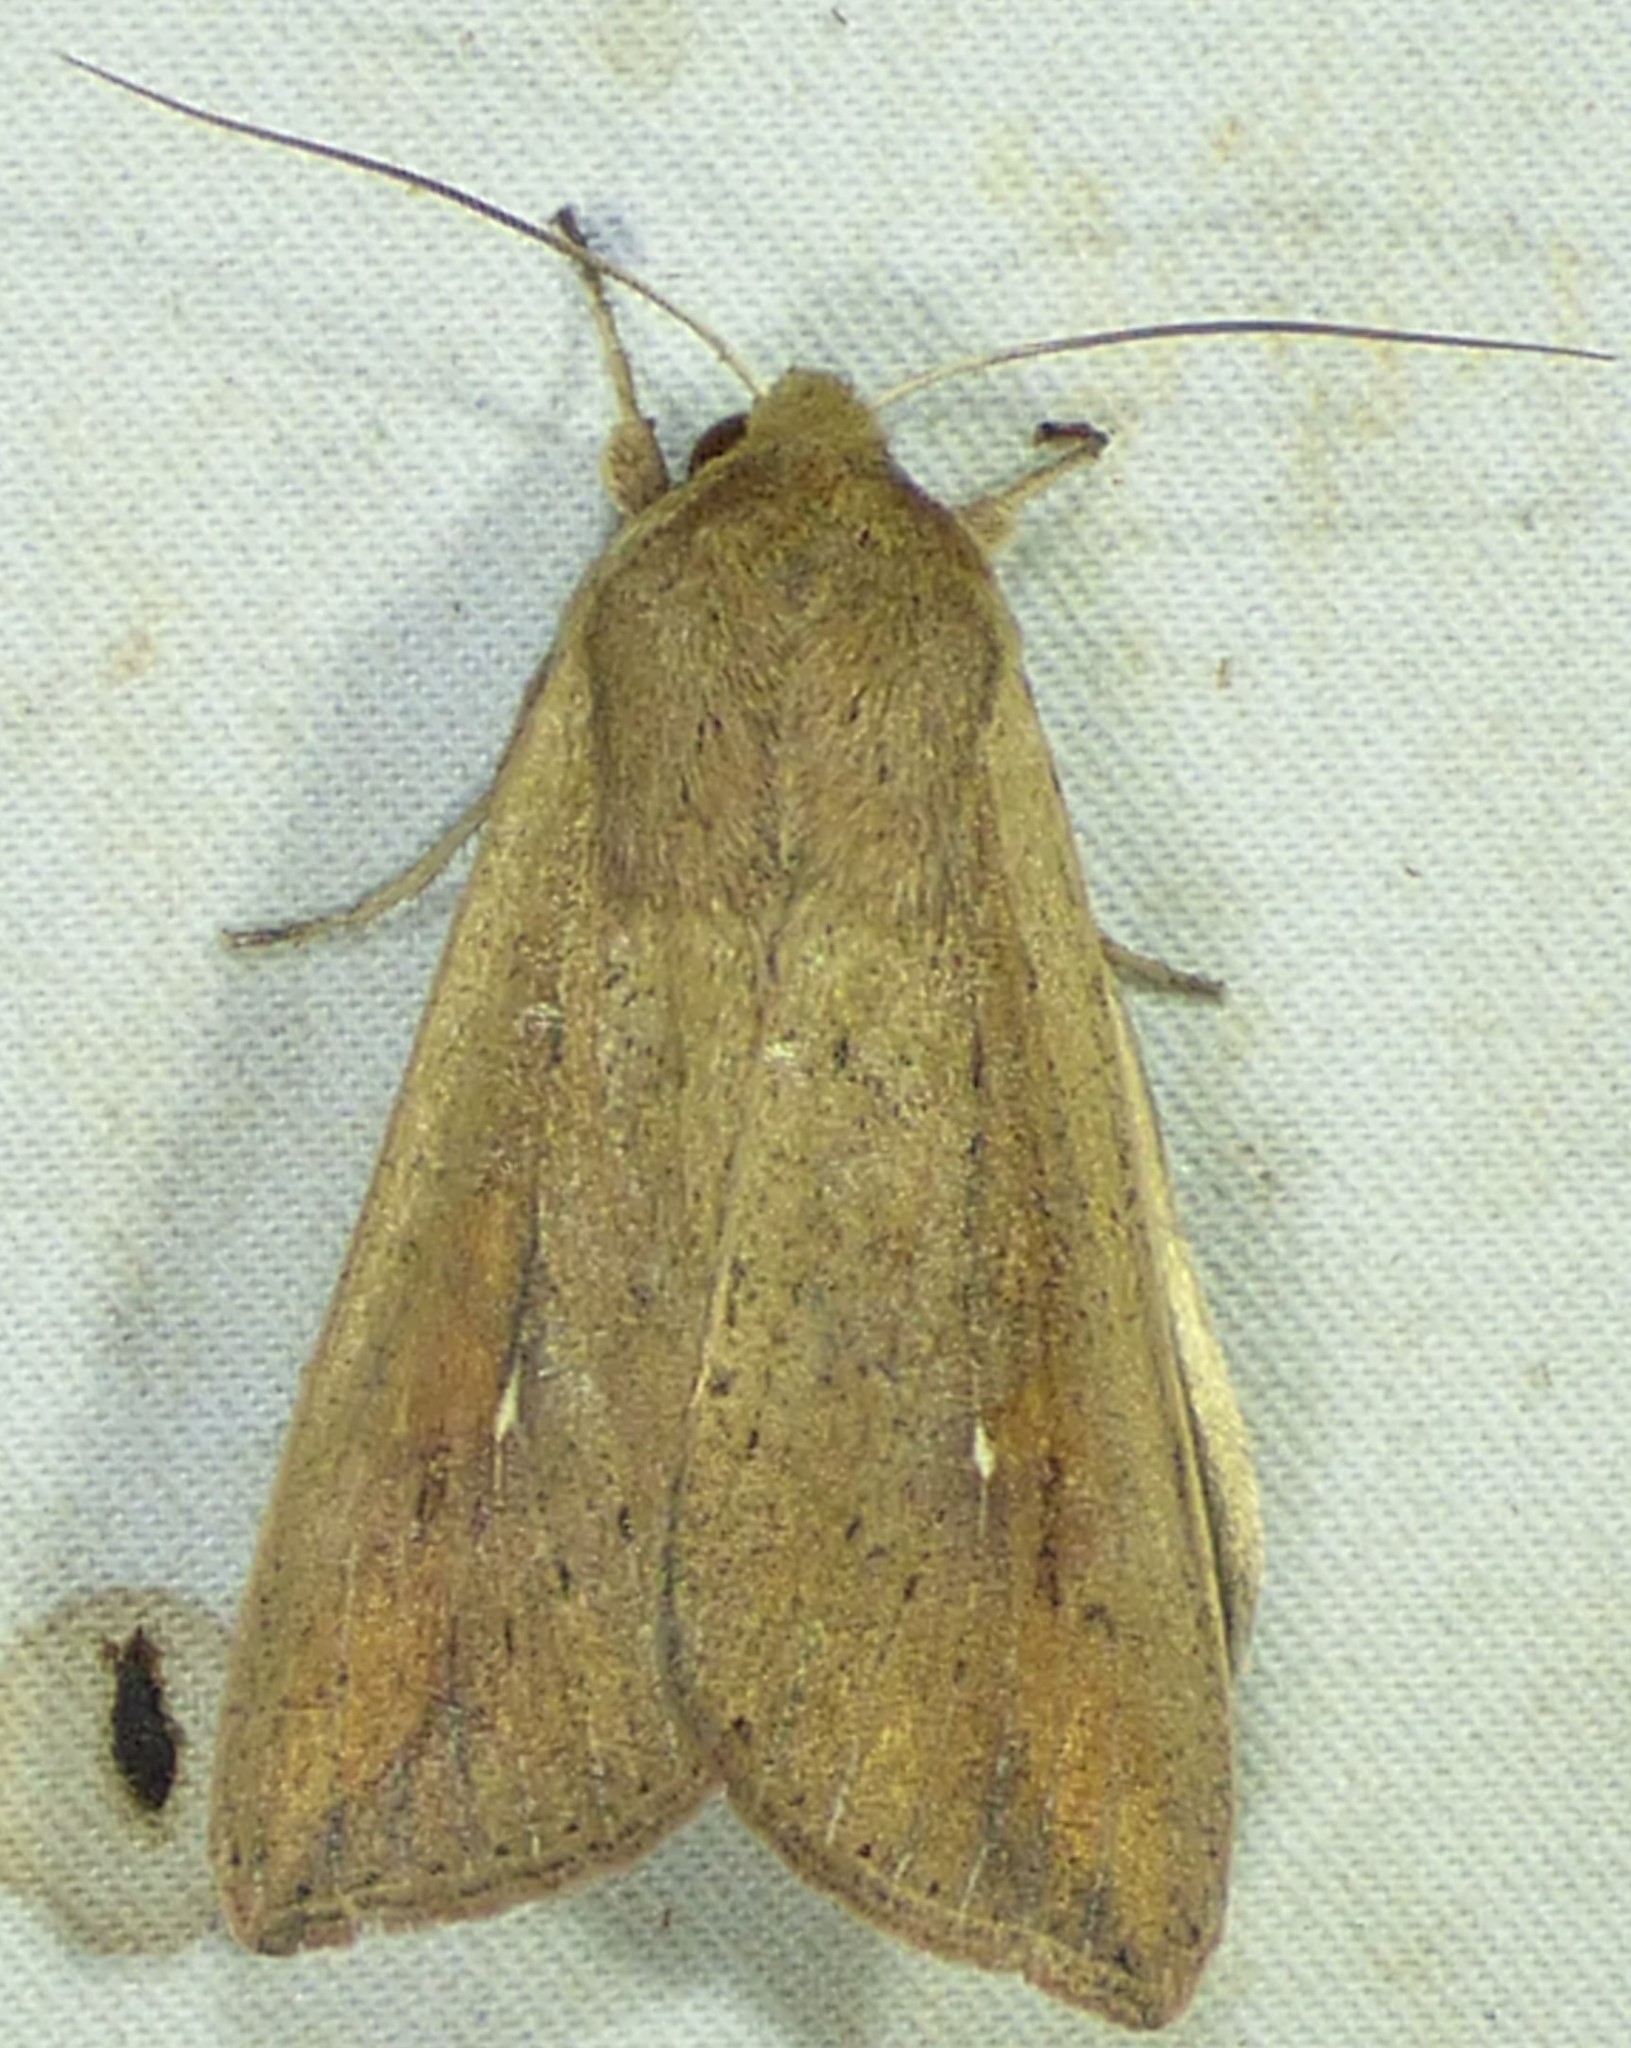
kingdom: Animalia
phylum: Arthropoda
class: Insecta
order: Lepidoptera
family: Noctuidae
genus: Mythimna
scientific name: Mythimna unipuncta
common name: White-speck
